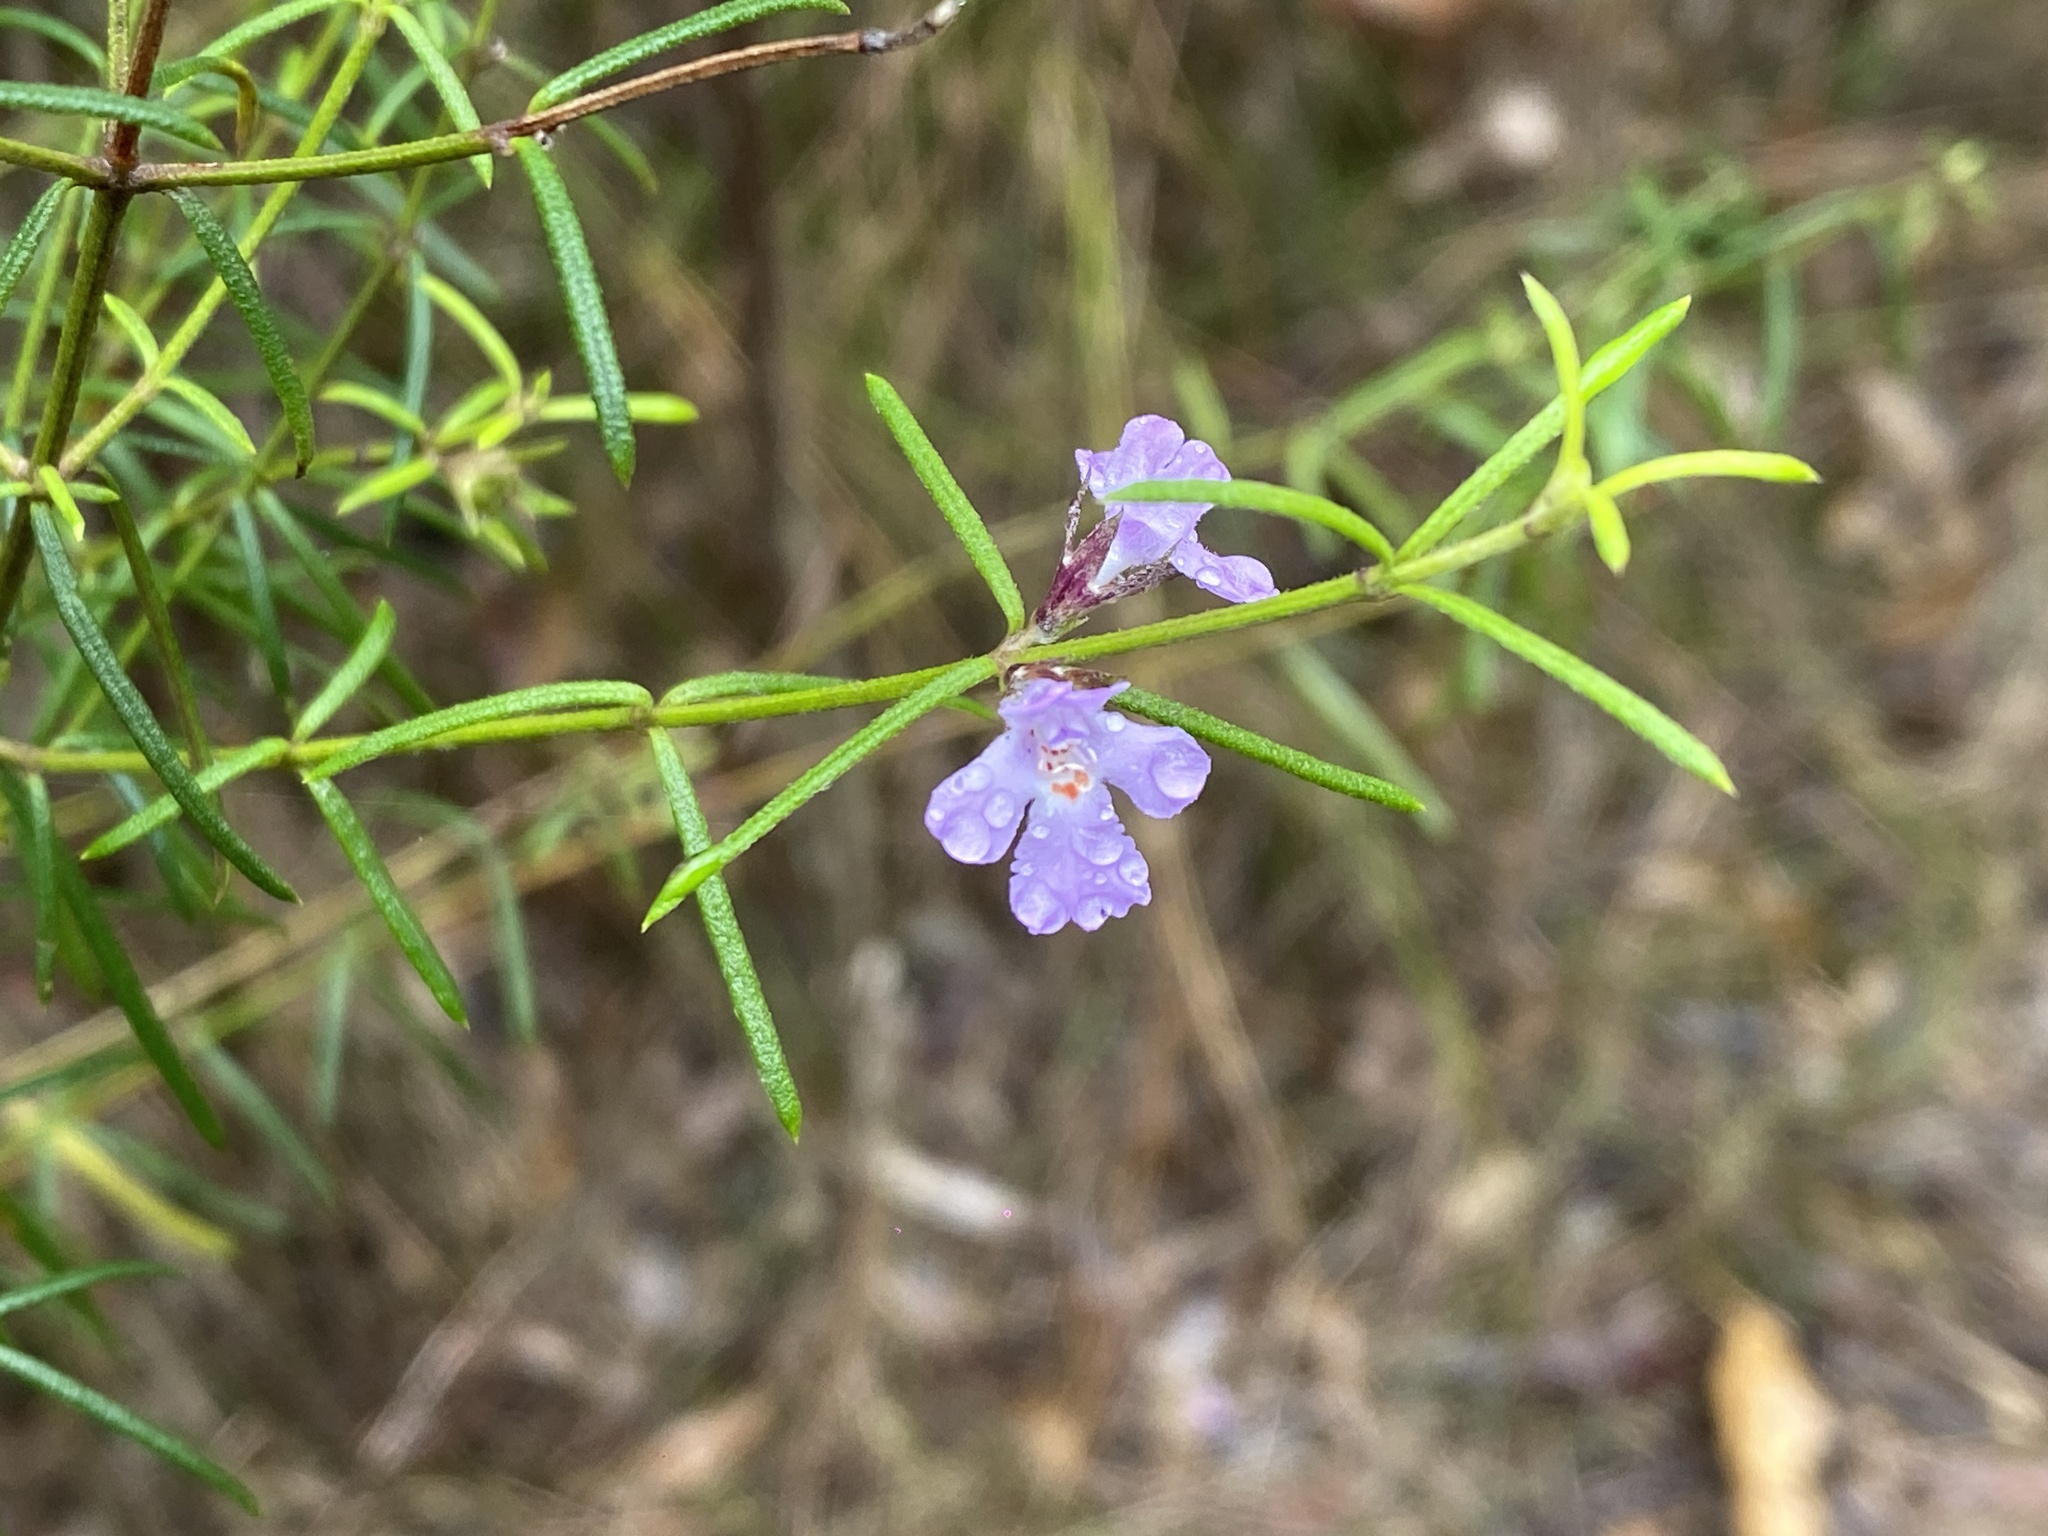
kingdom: Plantae
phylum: Tracheophyta
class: Magnoliopsida
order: Lamiales
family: Lamiaceae
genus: Westringia
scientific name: Westringia eremicola
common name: Slender western-rosemary
